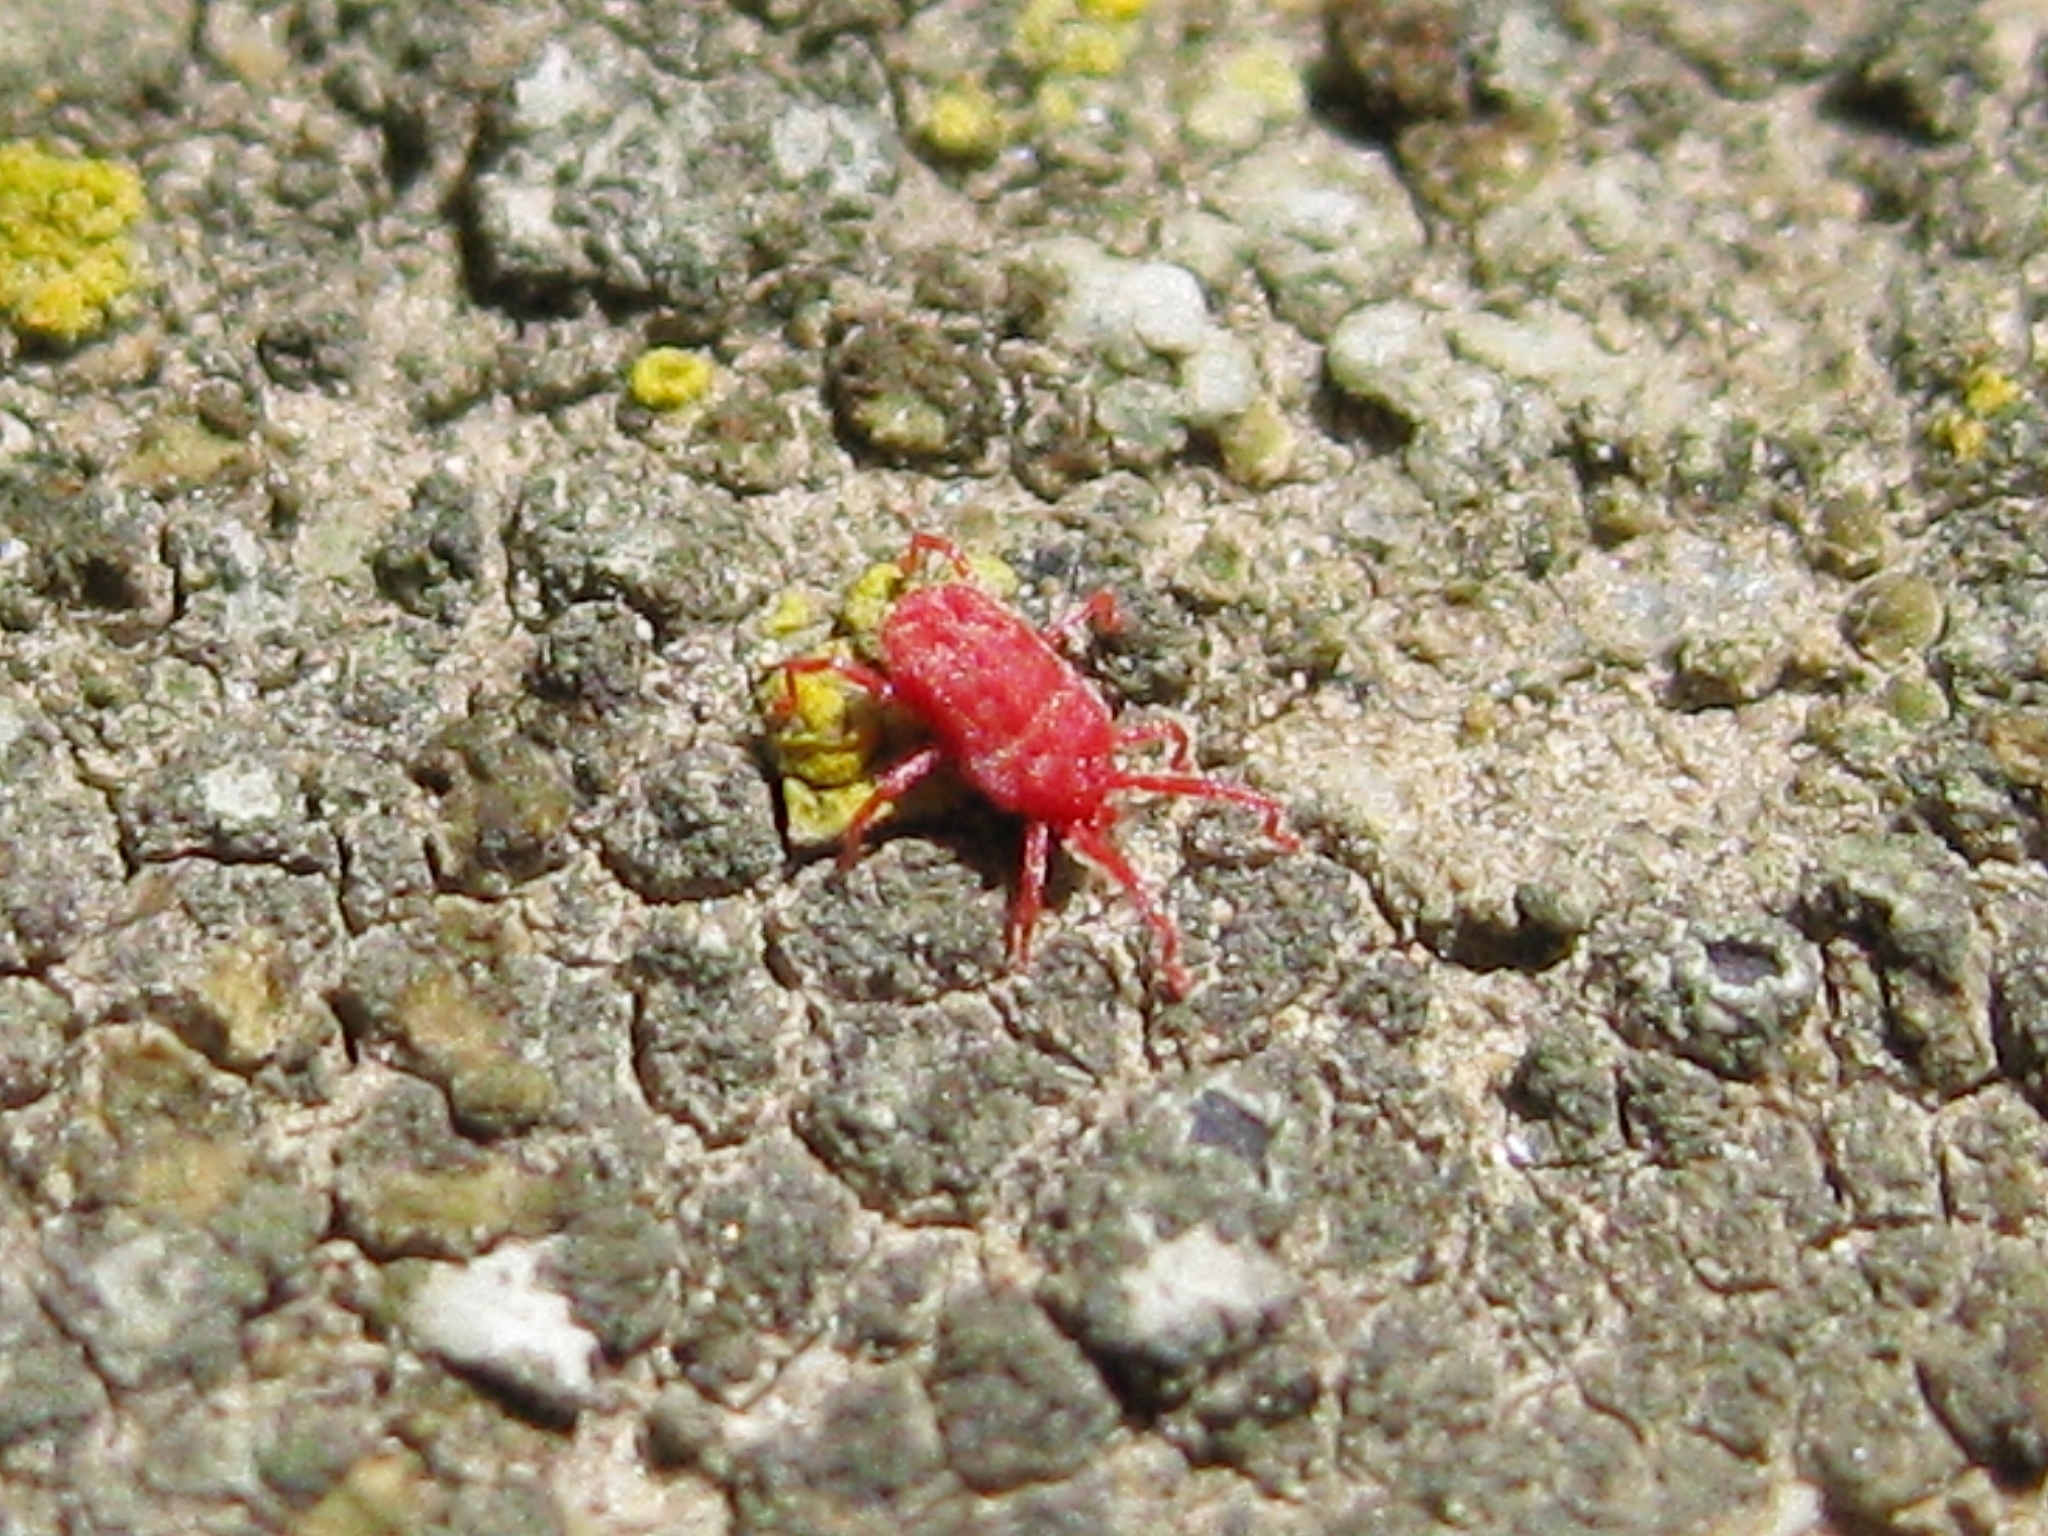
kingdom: Animalia
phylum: Arthropoda
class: Arachnida
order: Trombidiformes
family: Erythraeidae
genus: Balaustium
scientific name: Balaustium
